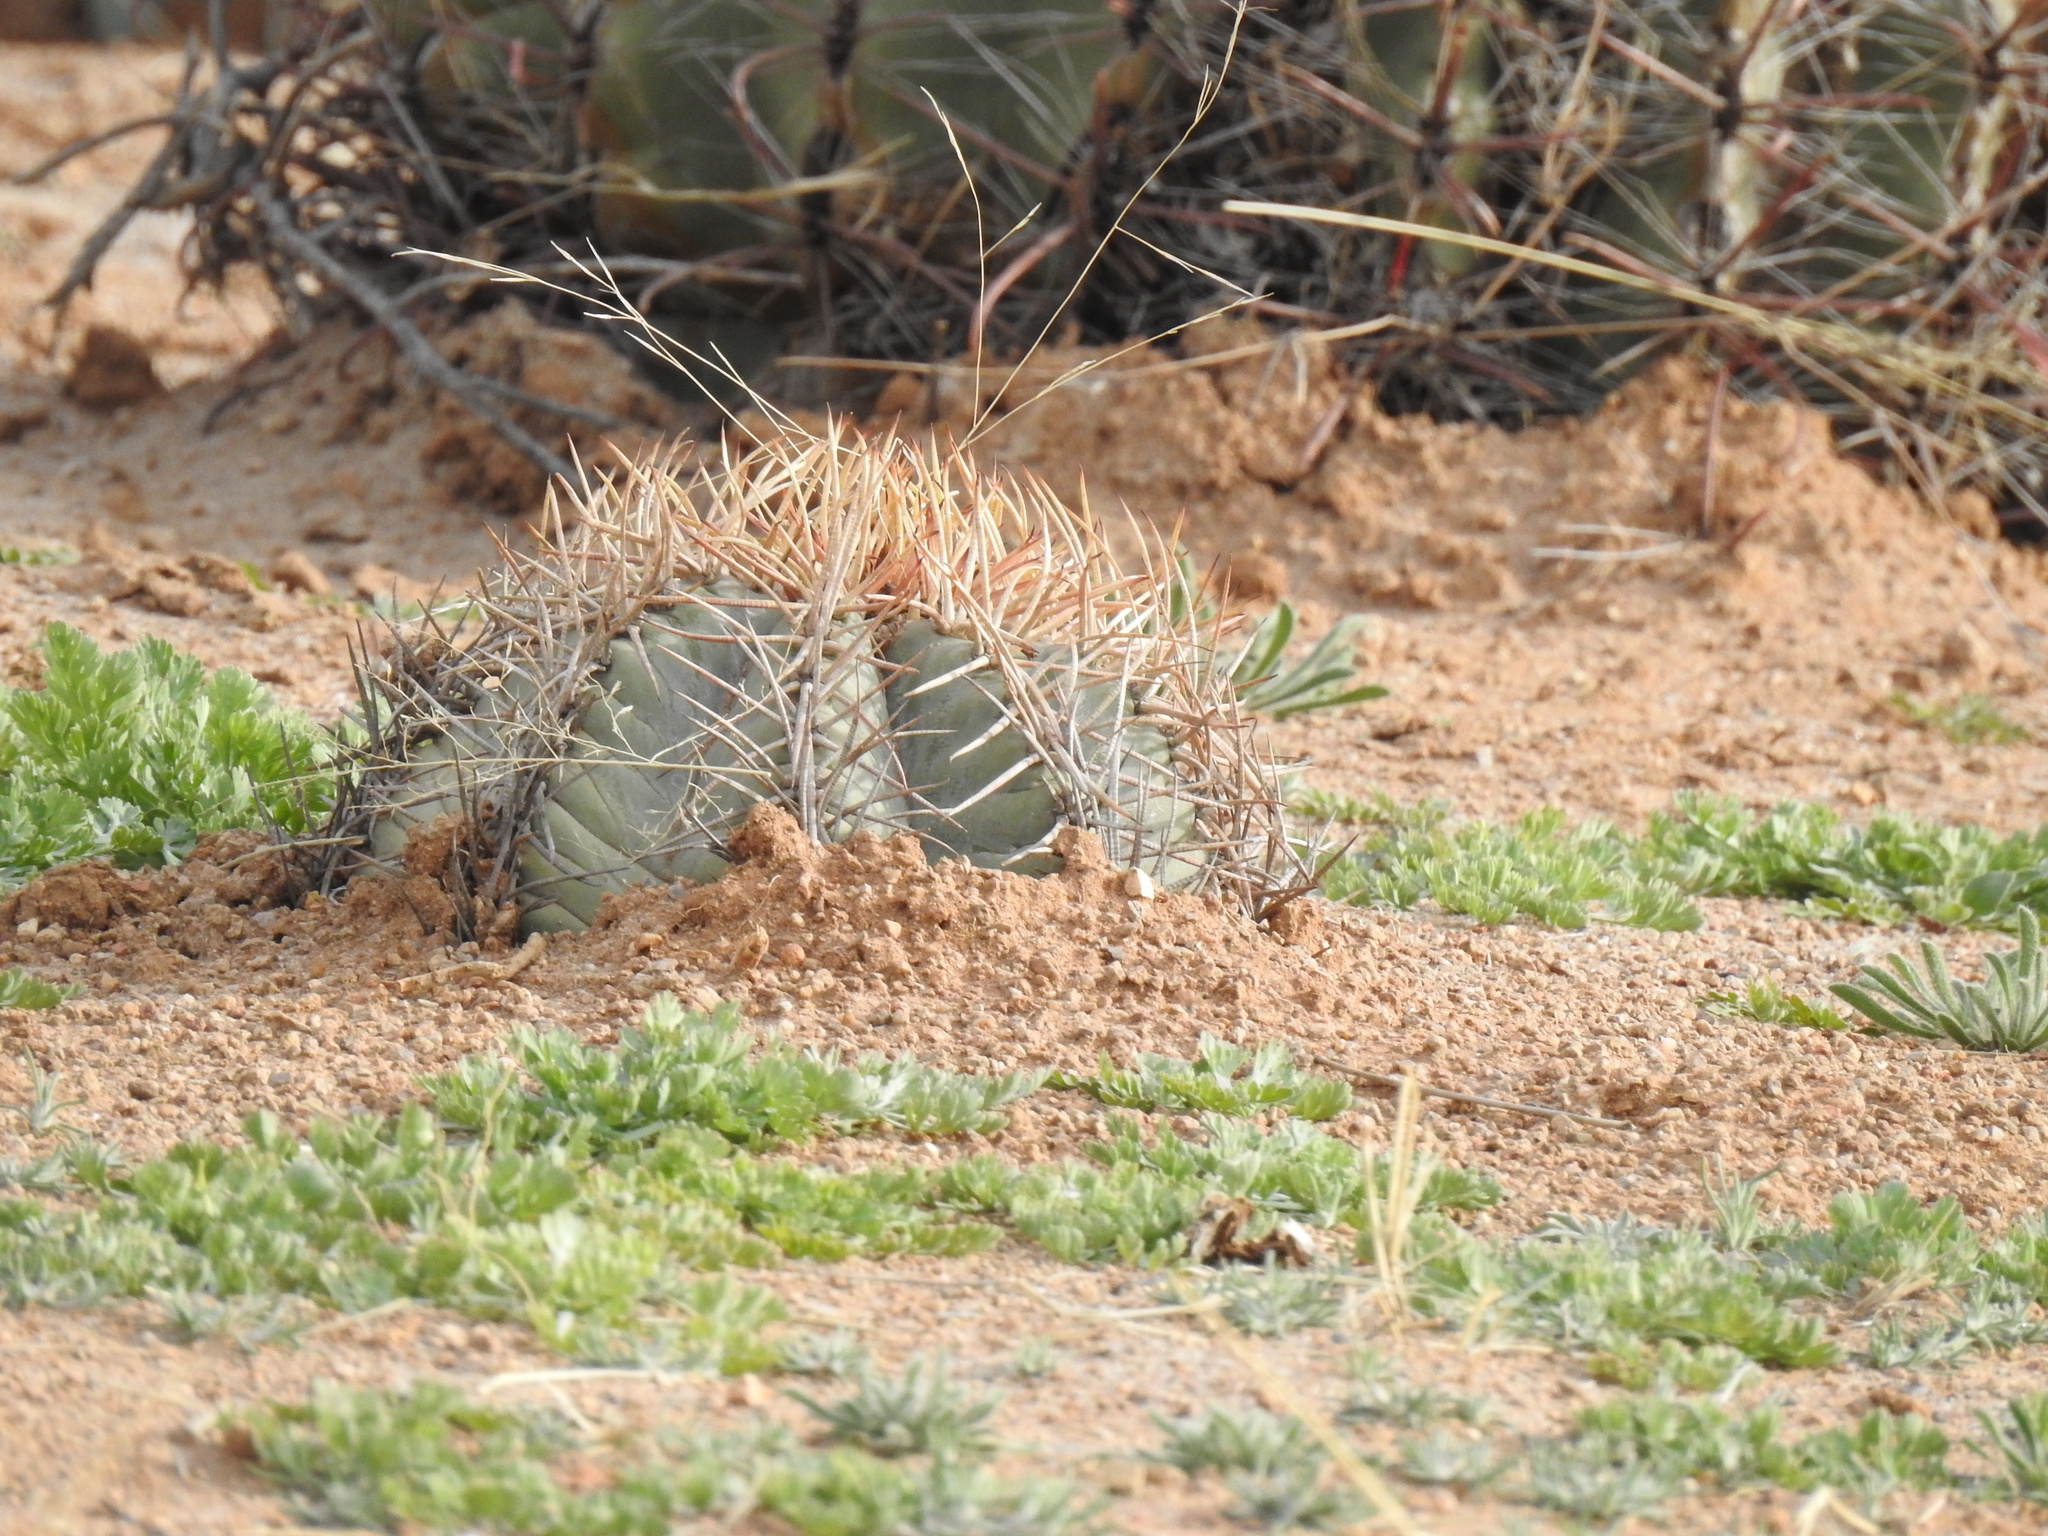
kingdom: Plantae
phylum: Tracheophyta
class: Magnoliopsida
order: Caryophyllales
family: Cactaceae
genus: Echinocactus
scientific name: Echinocactus horizonthalonius
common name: Devilshead
